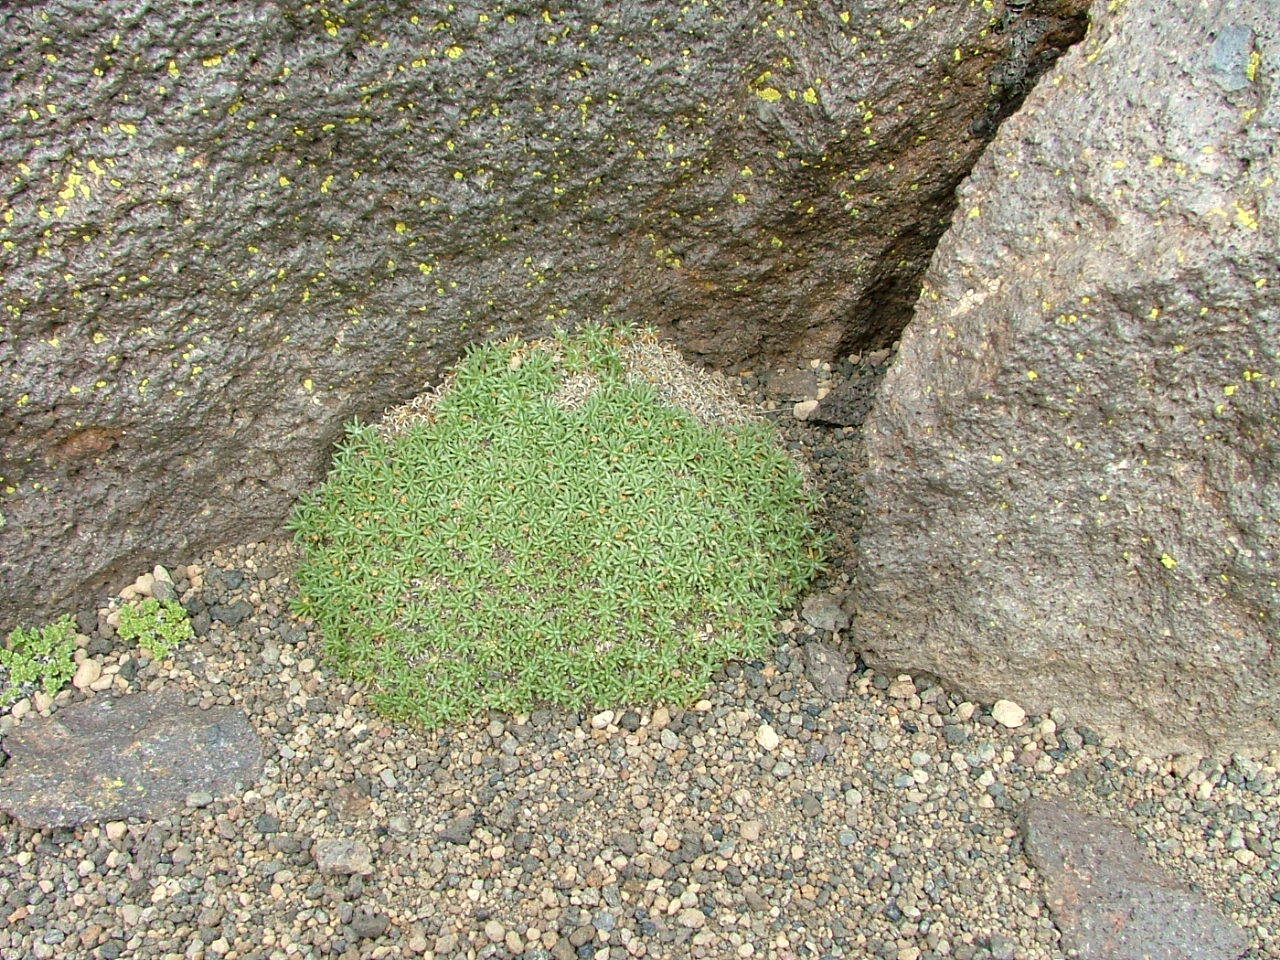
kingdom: Plantae
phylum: Tracheophyta
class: Magnoliopsida
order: Apiales
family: Apiaceae
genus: Azorella
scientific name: Azorella monantha
